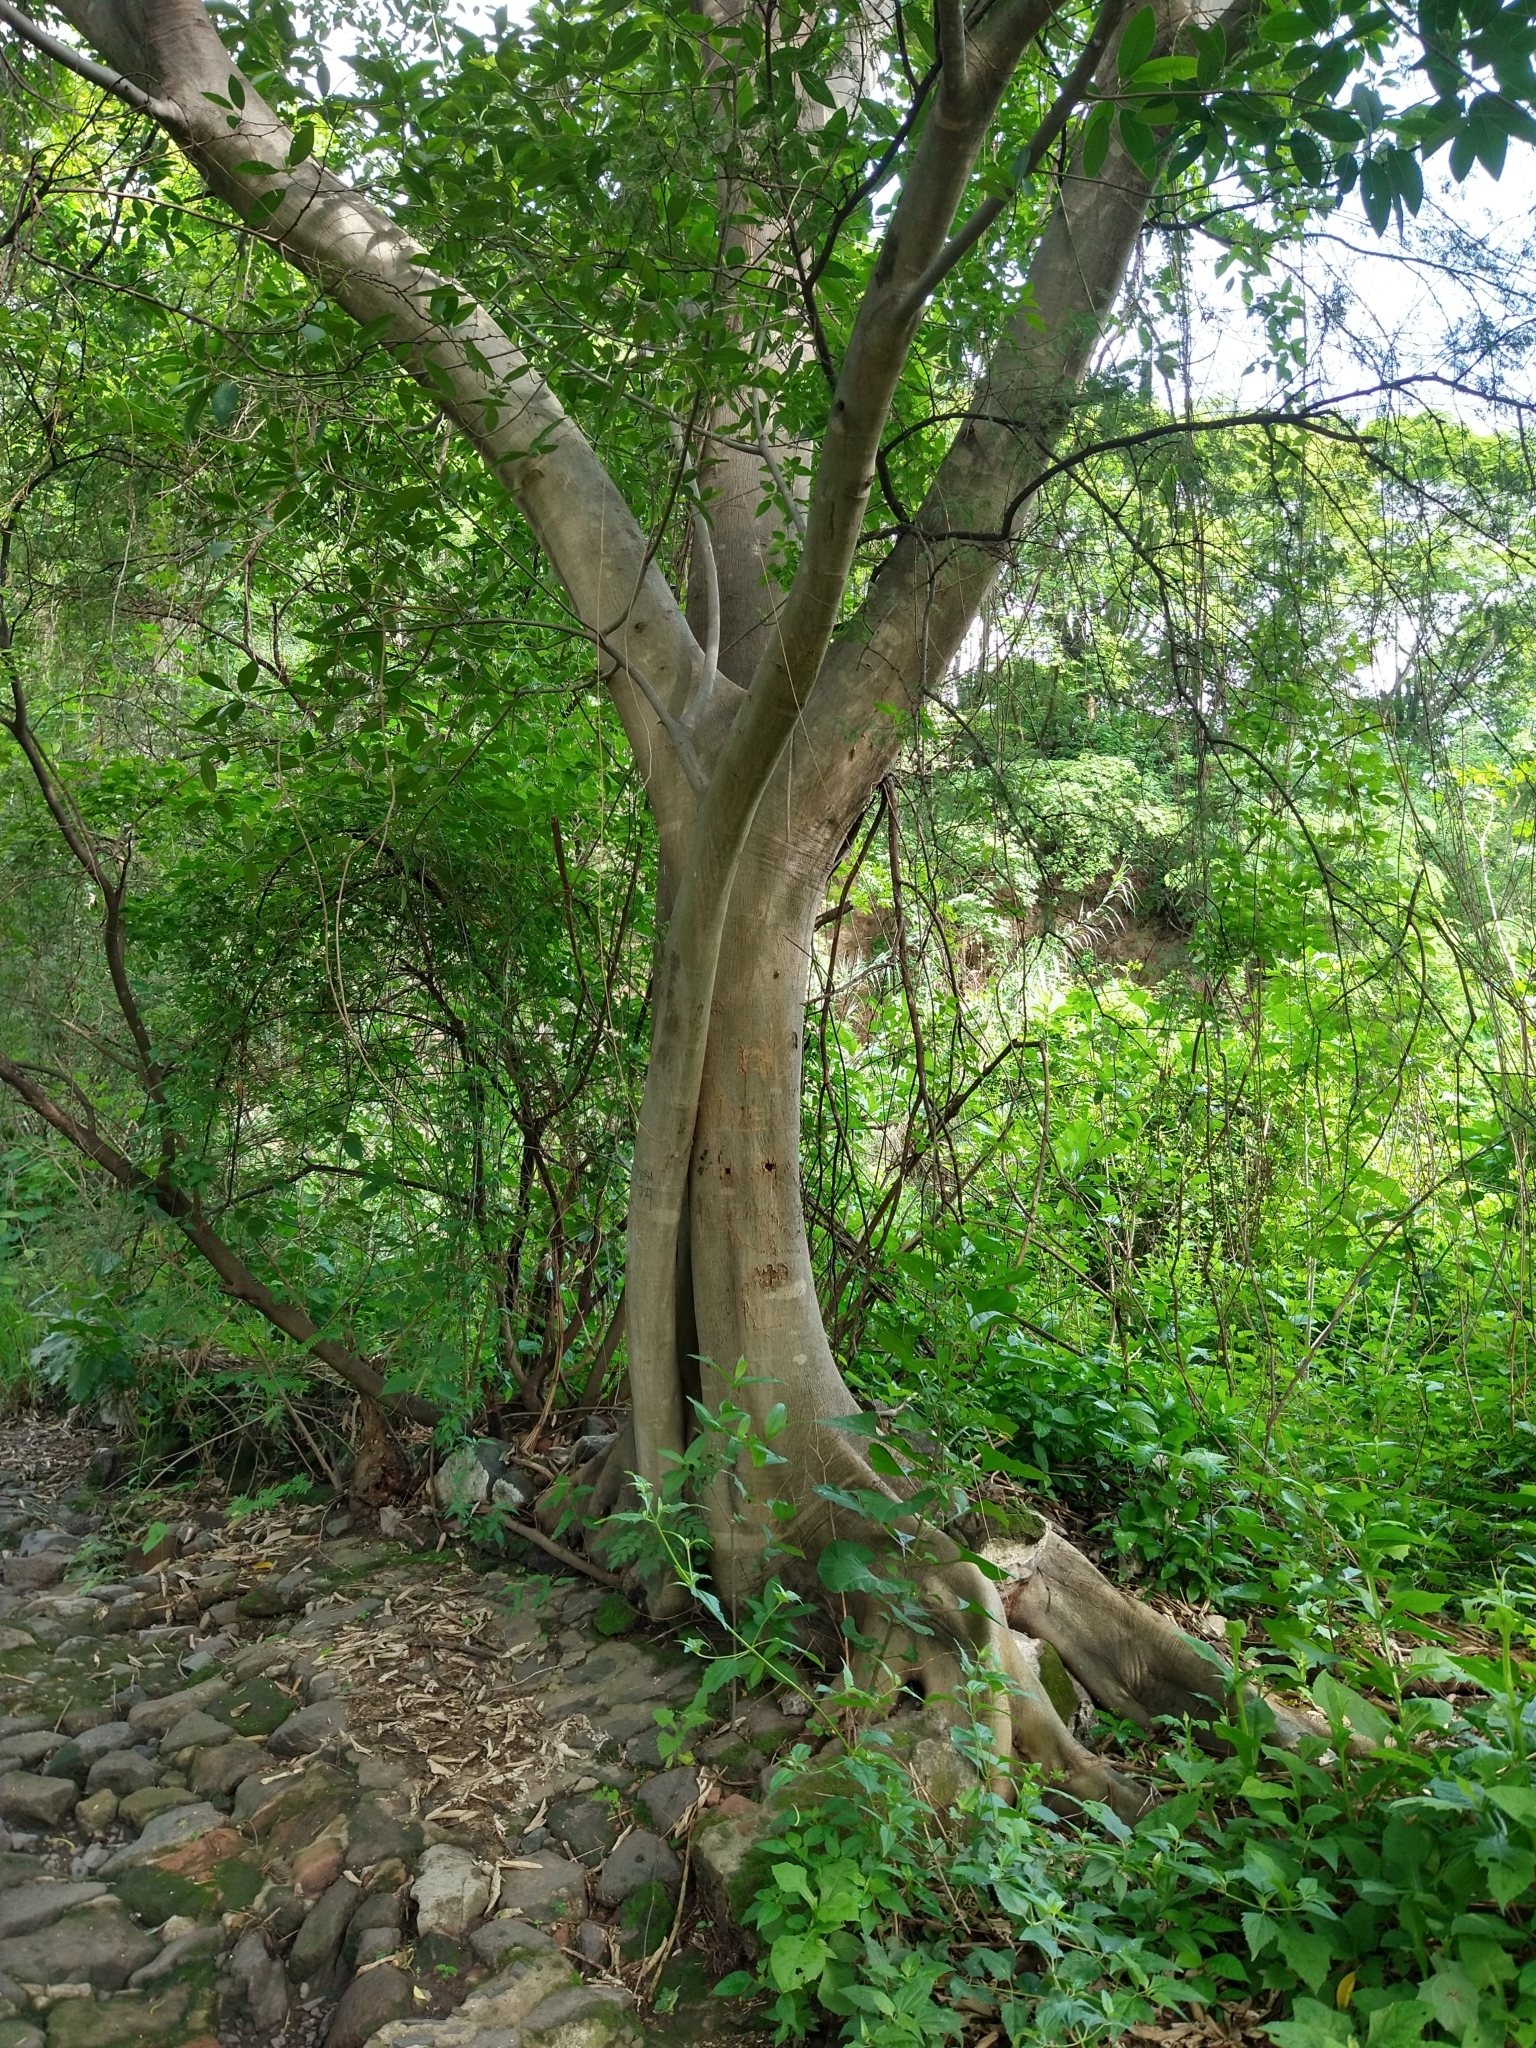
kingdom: Plantae
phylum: Tracheophyta
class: Magnoliopsida
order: Rosales
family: Moraceae
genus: Ficus
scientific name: Ficus insipida
